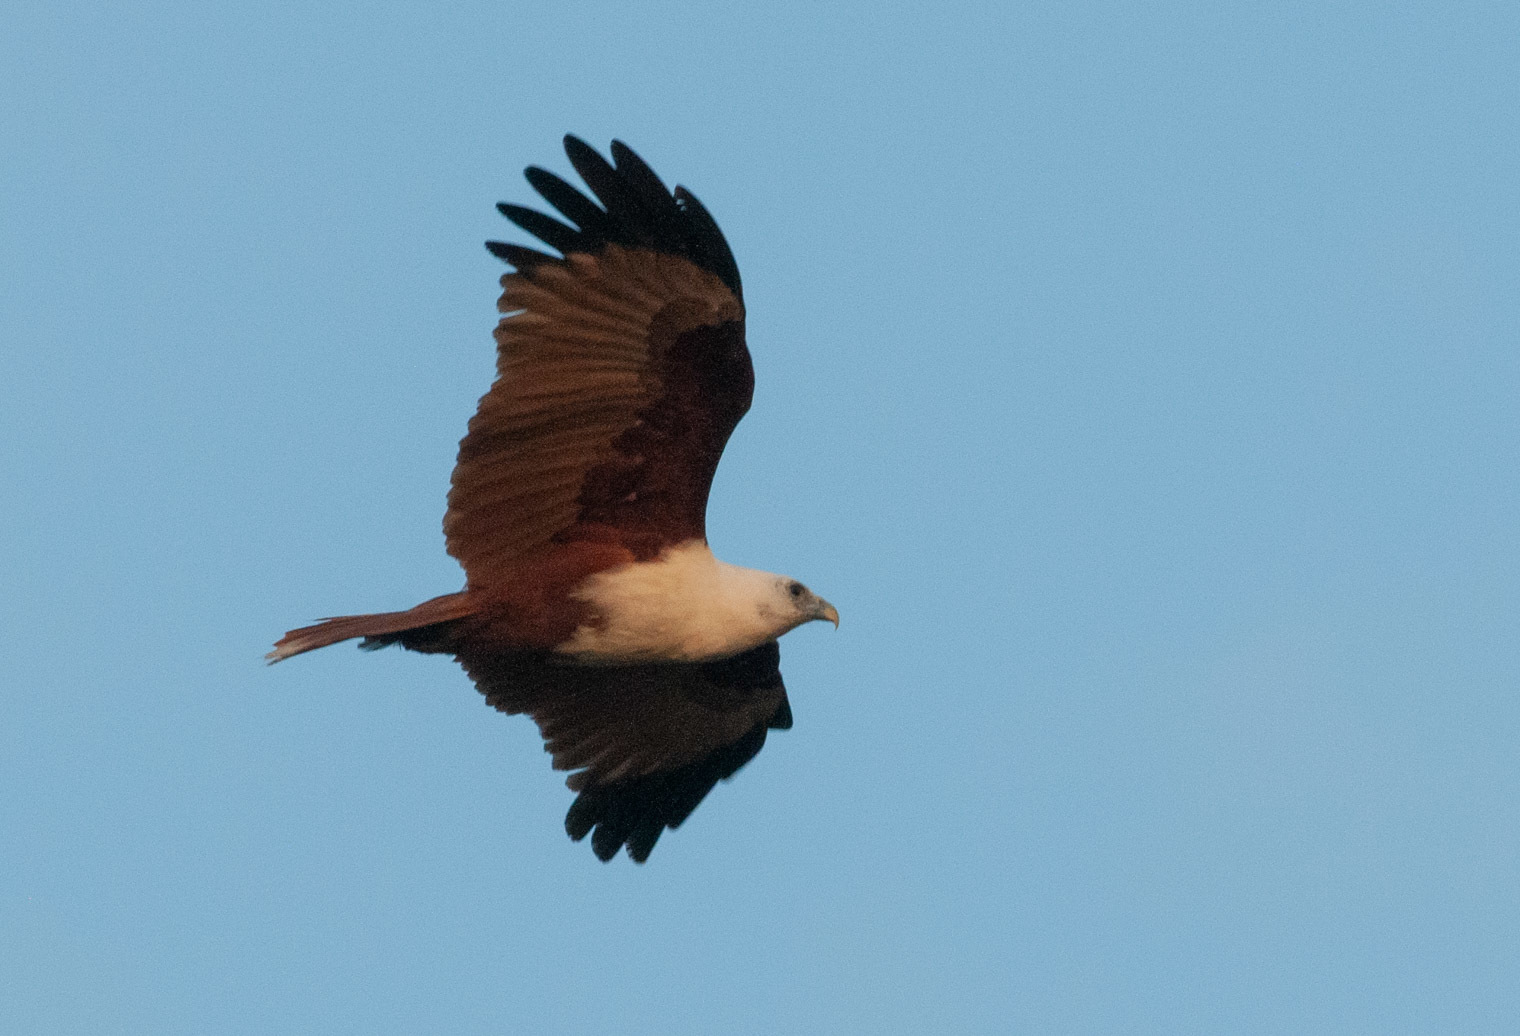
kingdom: Animalia
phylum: Chordata
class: Aves
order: Accipitriformes
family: Accipitridae
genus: Haliastur
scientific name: Haliastur indus
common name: Brahminy kite
